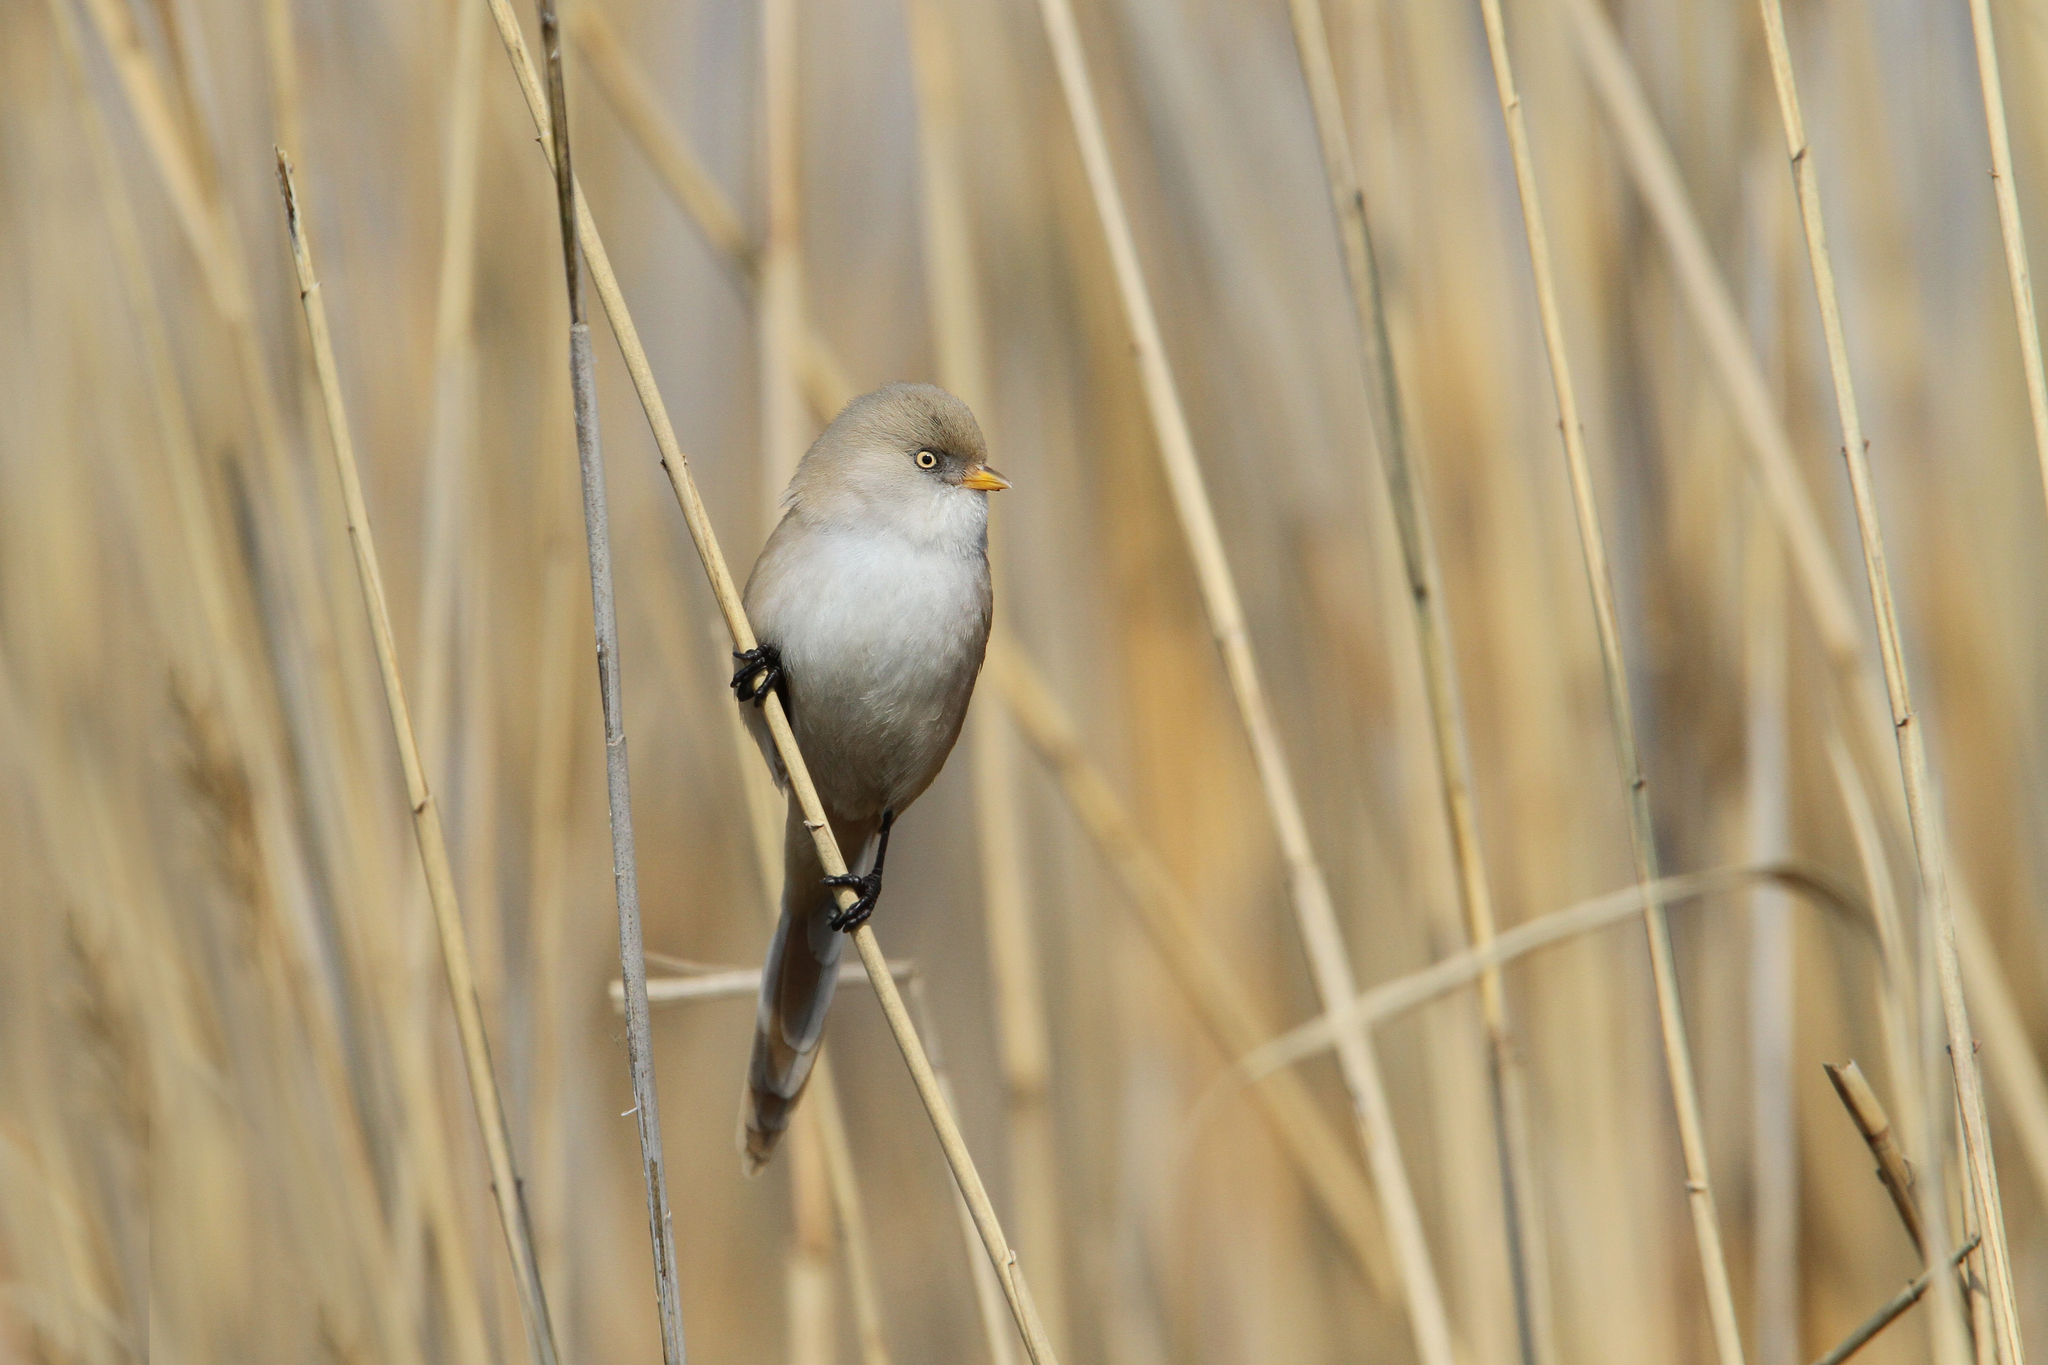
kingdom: Animalia
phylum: Chordata
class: Aves
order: Passeriformes
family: Panuridae
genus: Panurus
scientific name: Panurus biarmicus
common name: Bearded reedling
